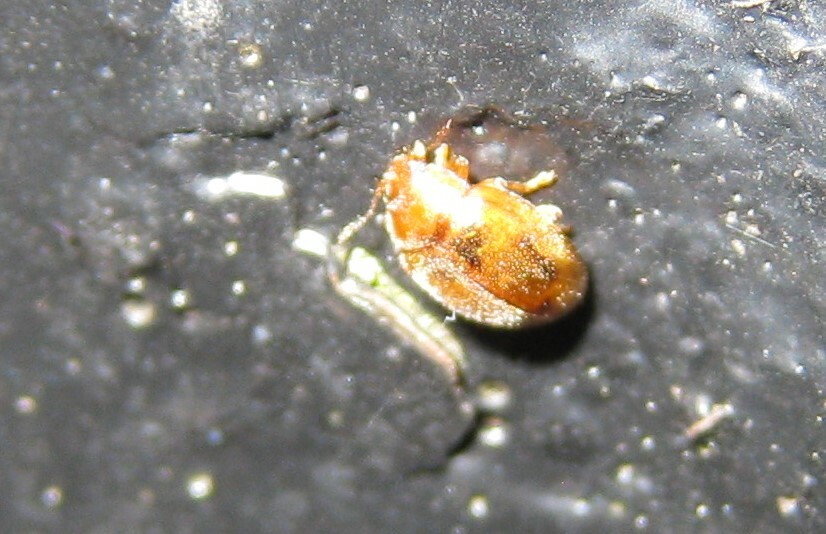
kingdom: Animalia
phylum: Arthropoda
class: Insecta
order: Coleoptera
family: Coccinellidae
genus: Rhyzobius
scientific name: Rhyzobius litura
